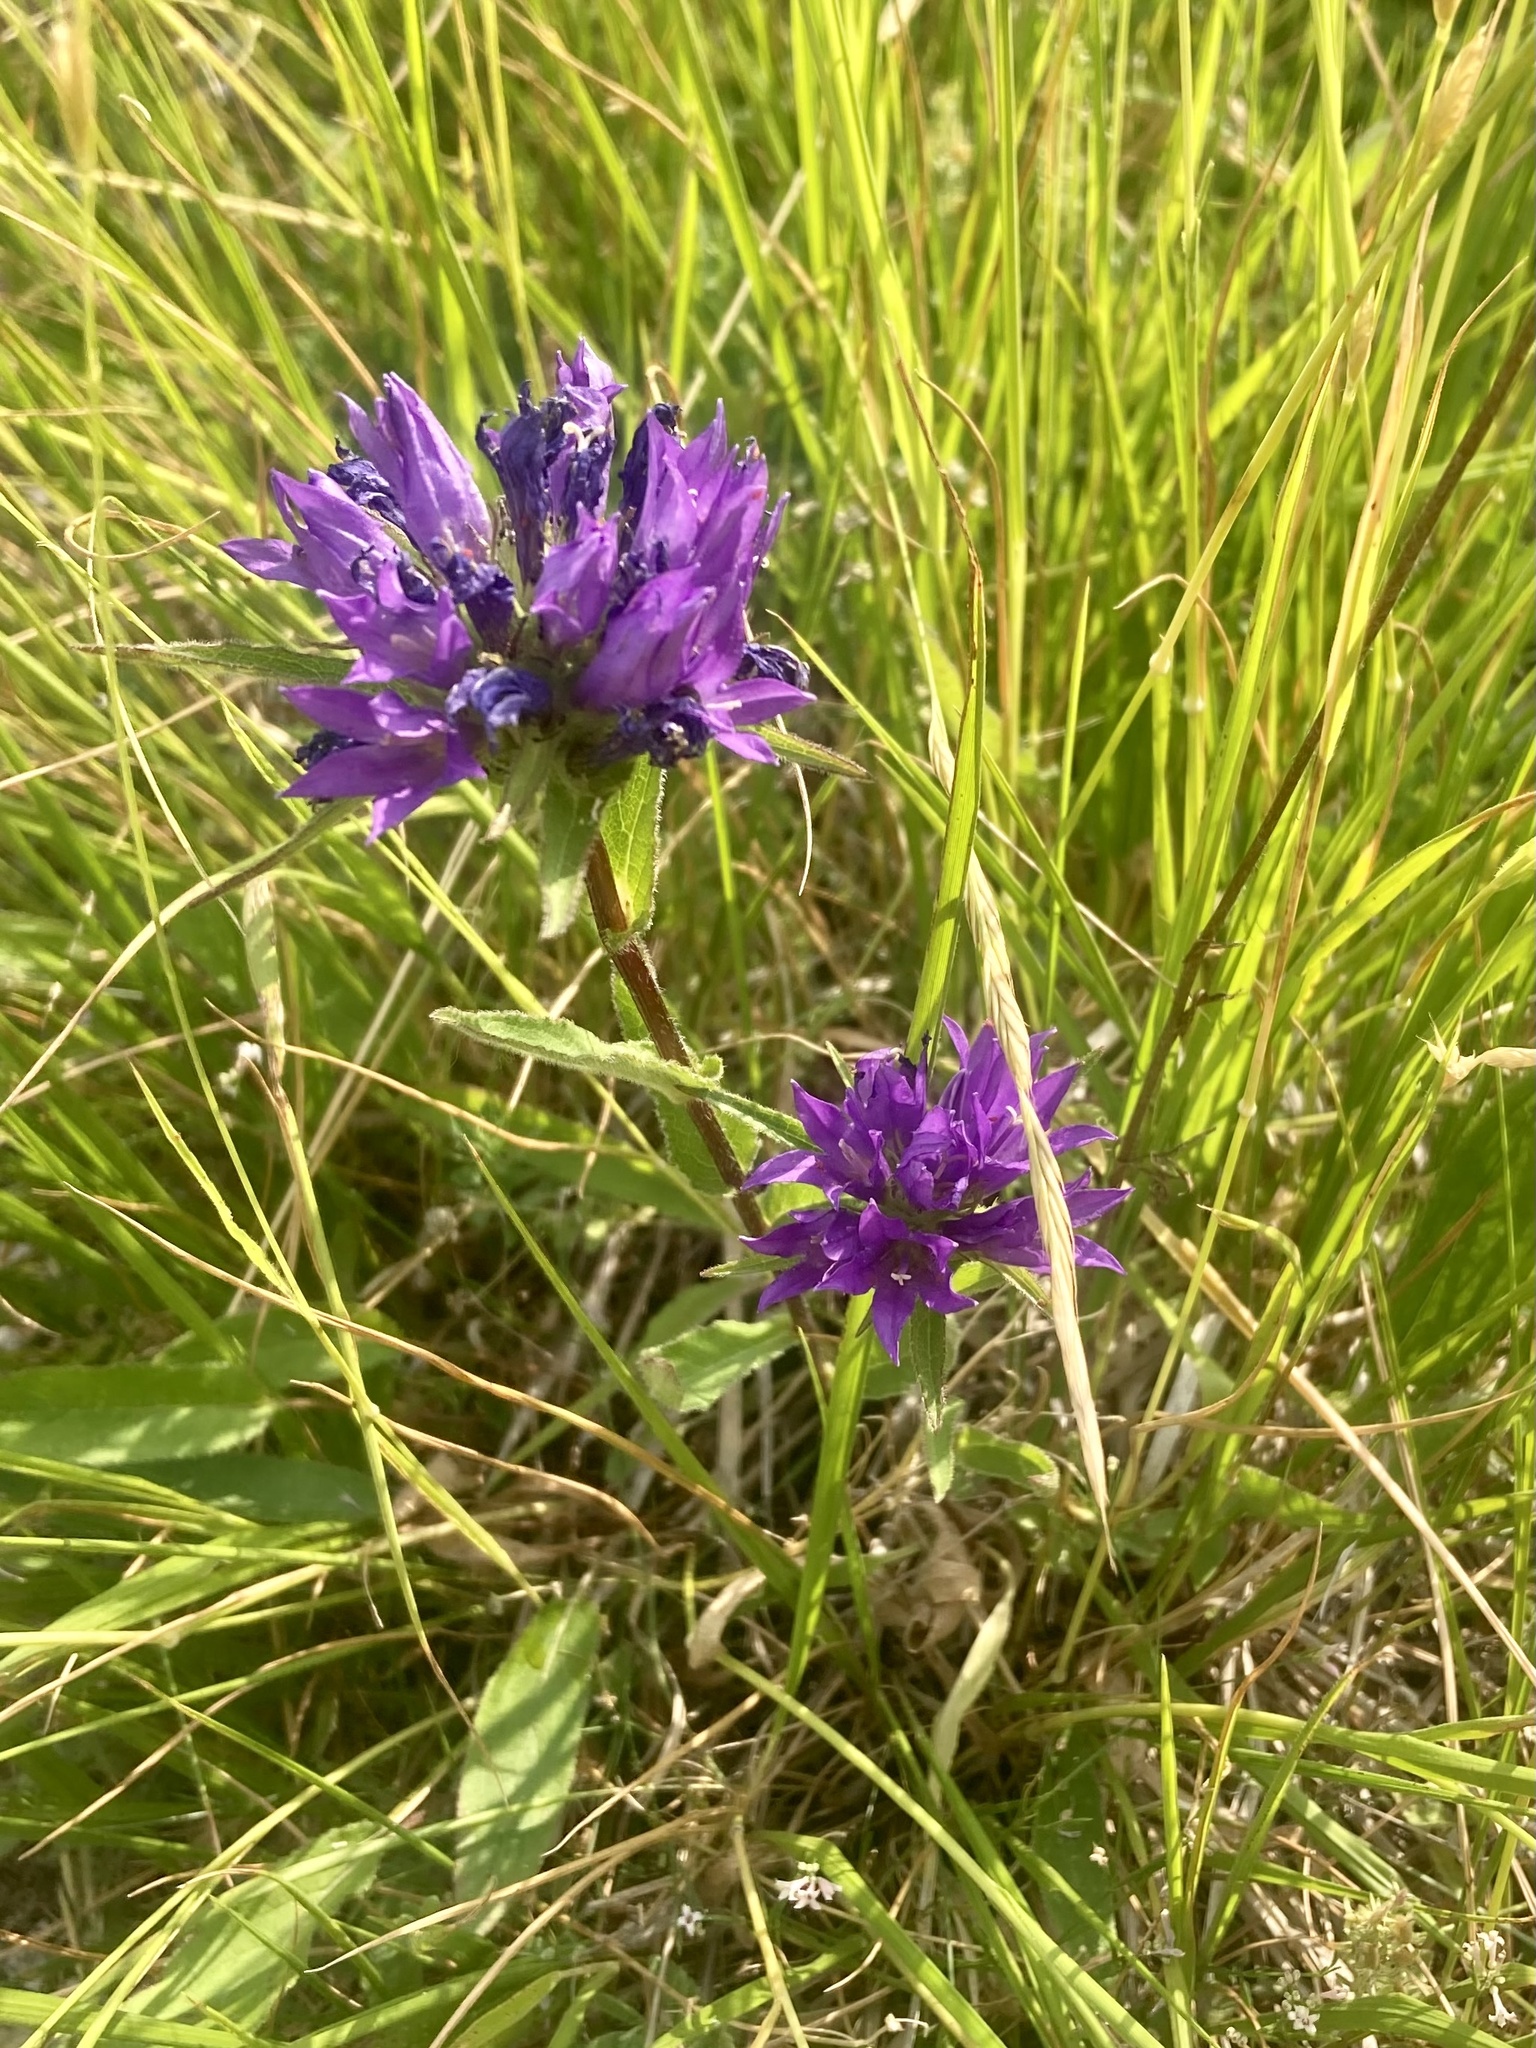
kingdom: Plantae
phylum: Tracheophyta
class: Magnoliopsida
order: Asterales
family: Campanulaceae
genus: Campanula
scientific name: Campanula glomerata
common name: Clustered bellflower
